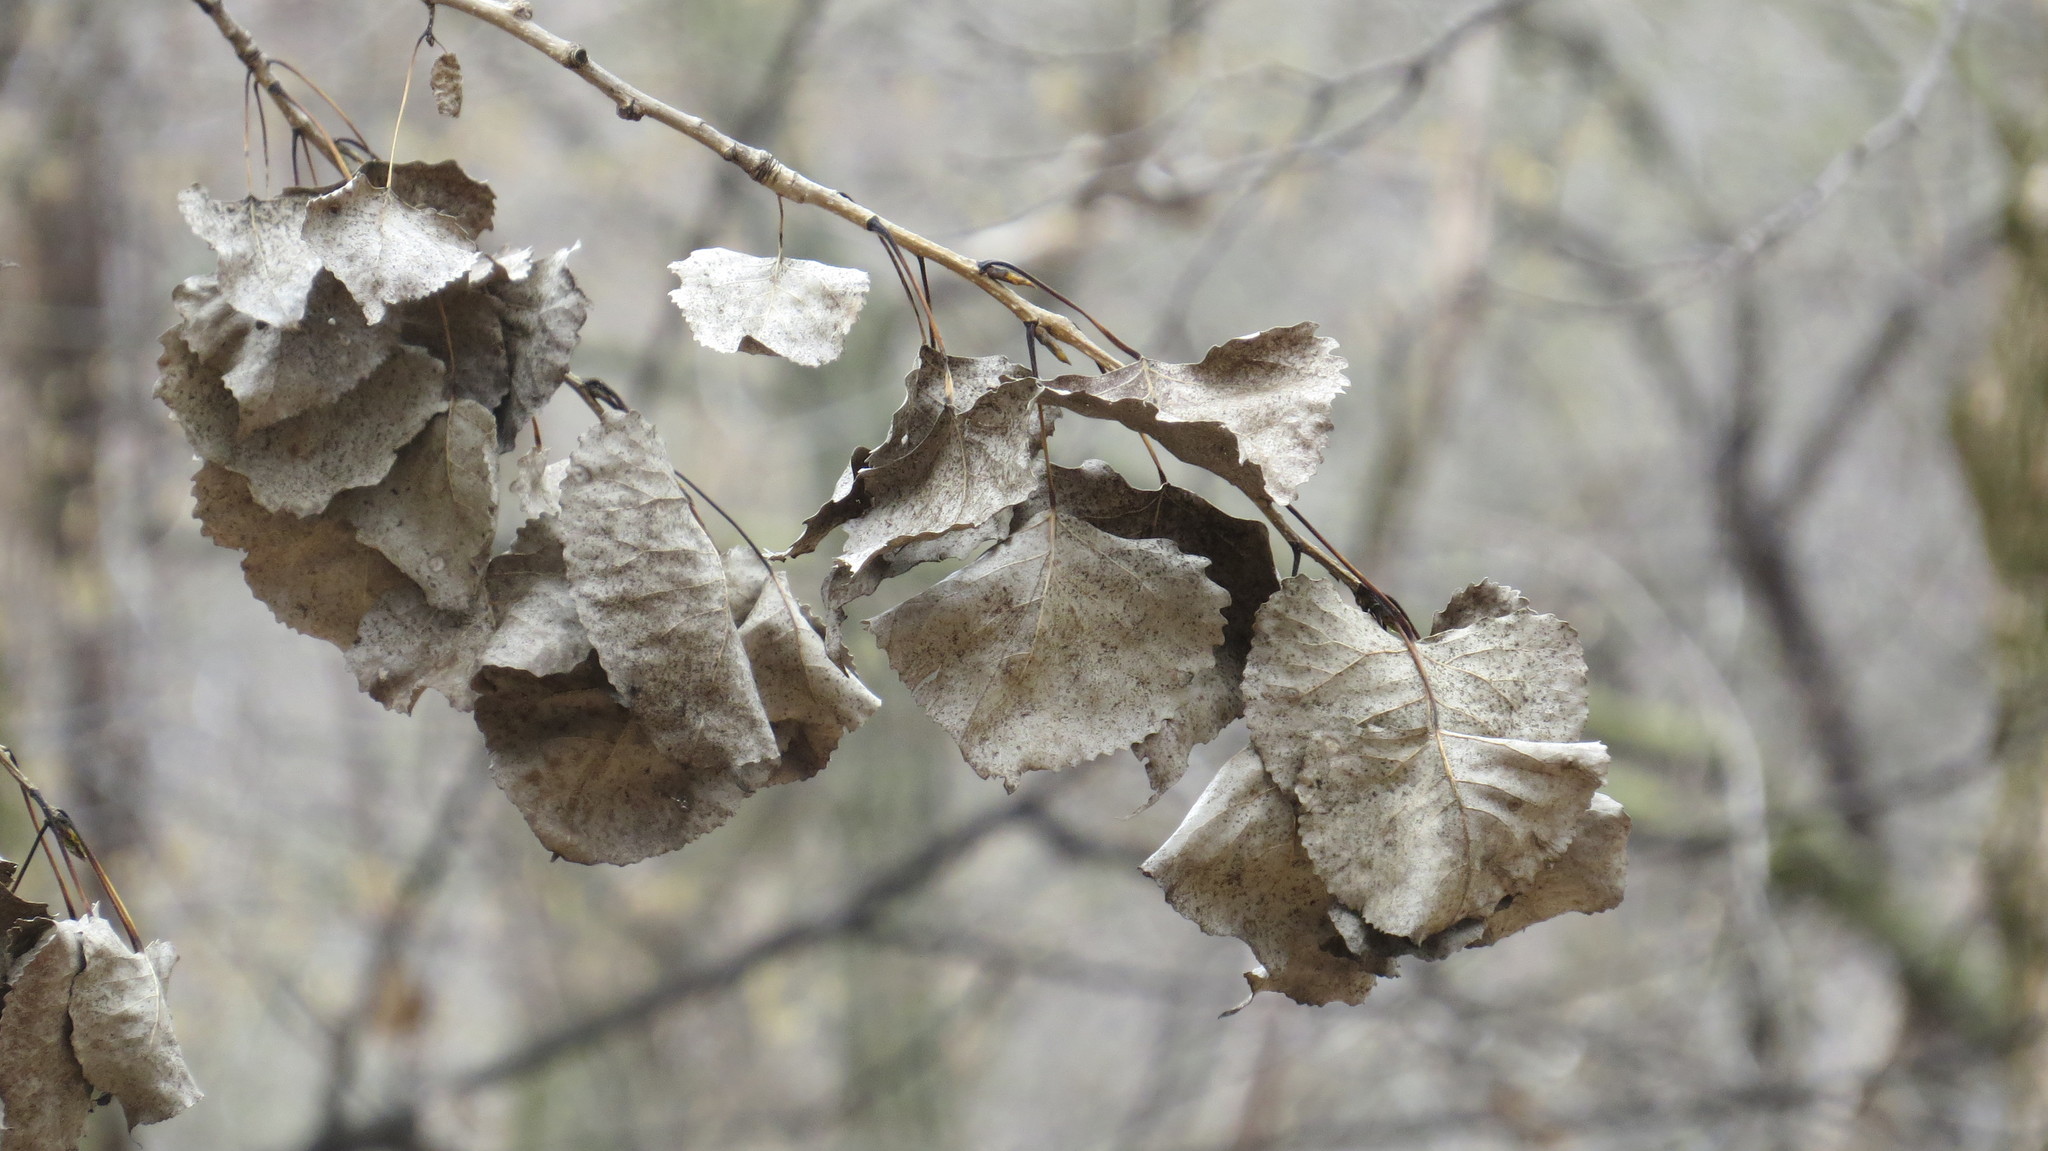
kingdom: Plantae
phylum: Tracheophyta
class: Magnoliopsida
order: Malpighiales
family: Salicaceae
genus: Populus
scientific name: Populus deltoides
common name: Eastern cottonwood
